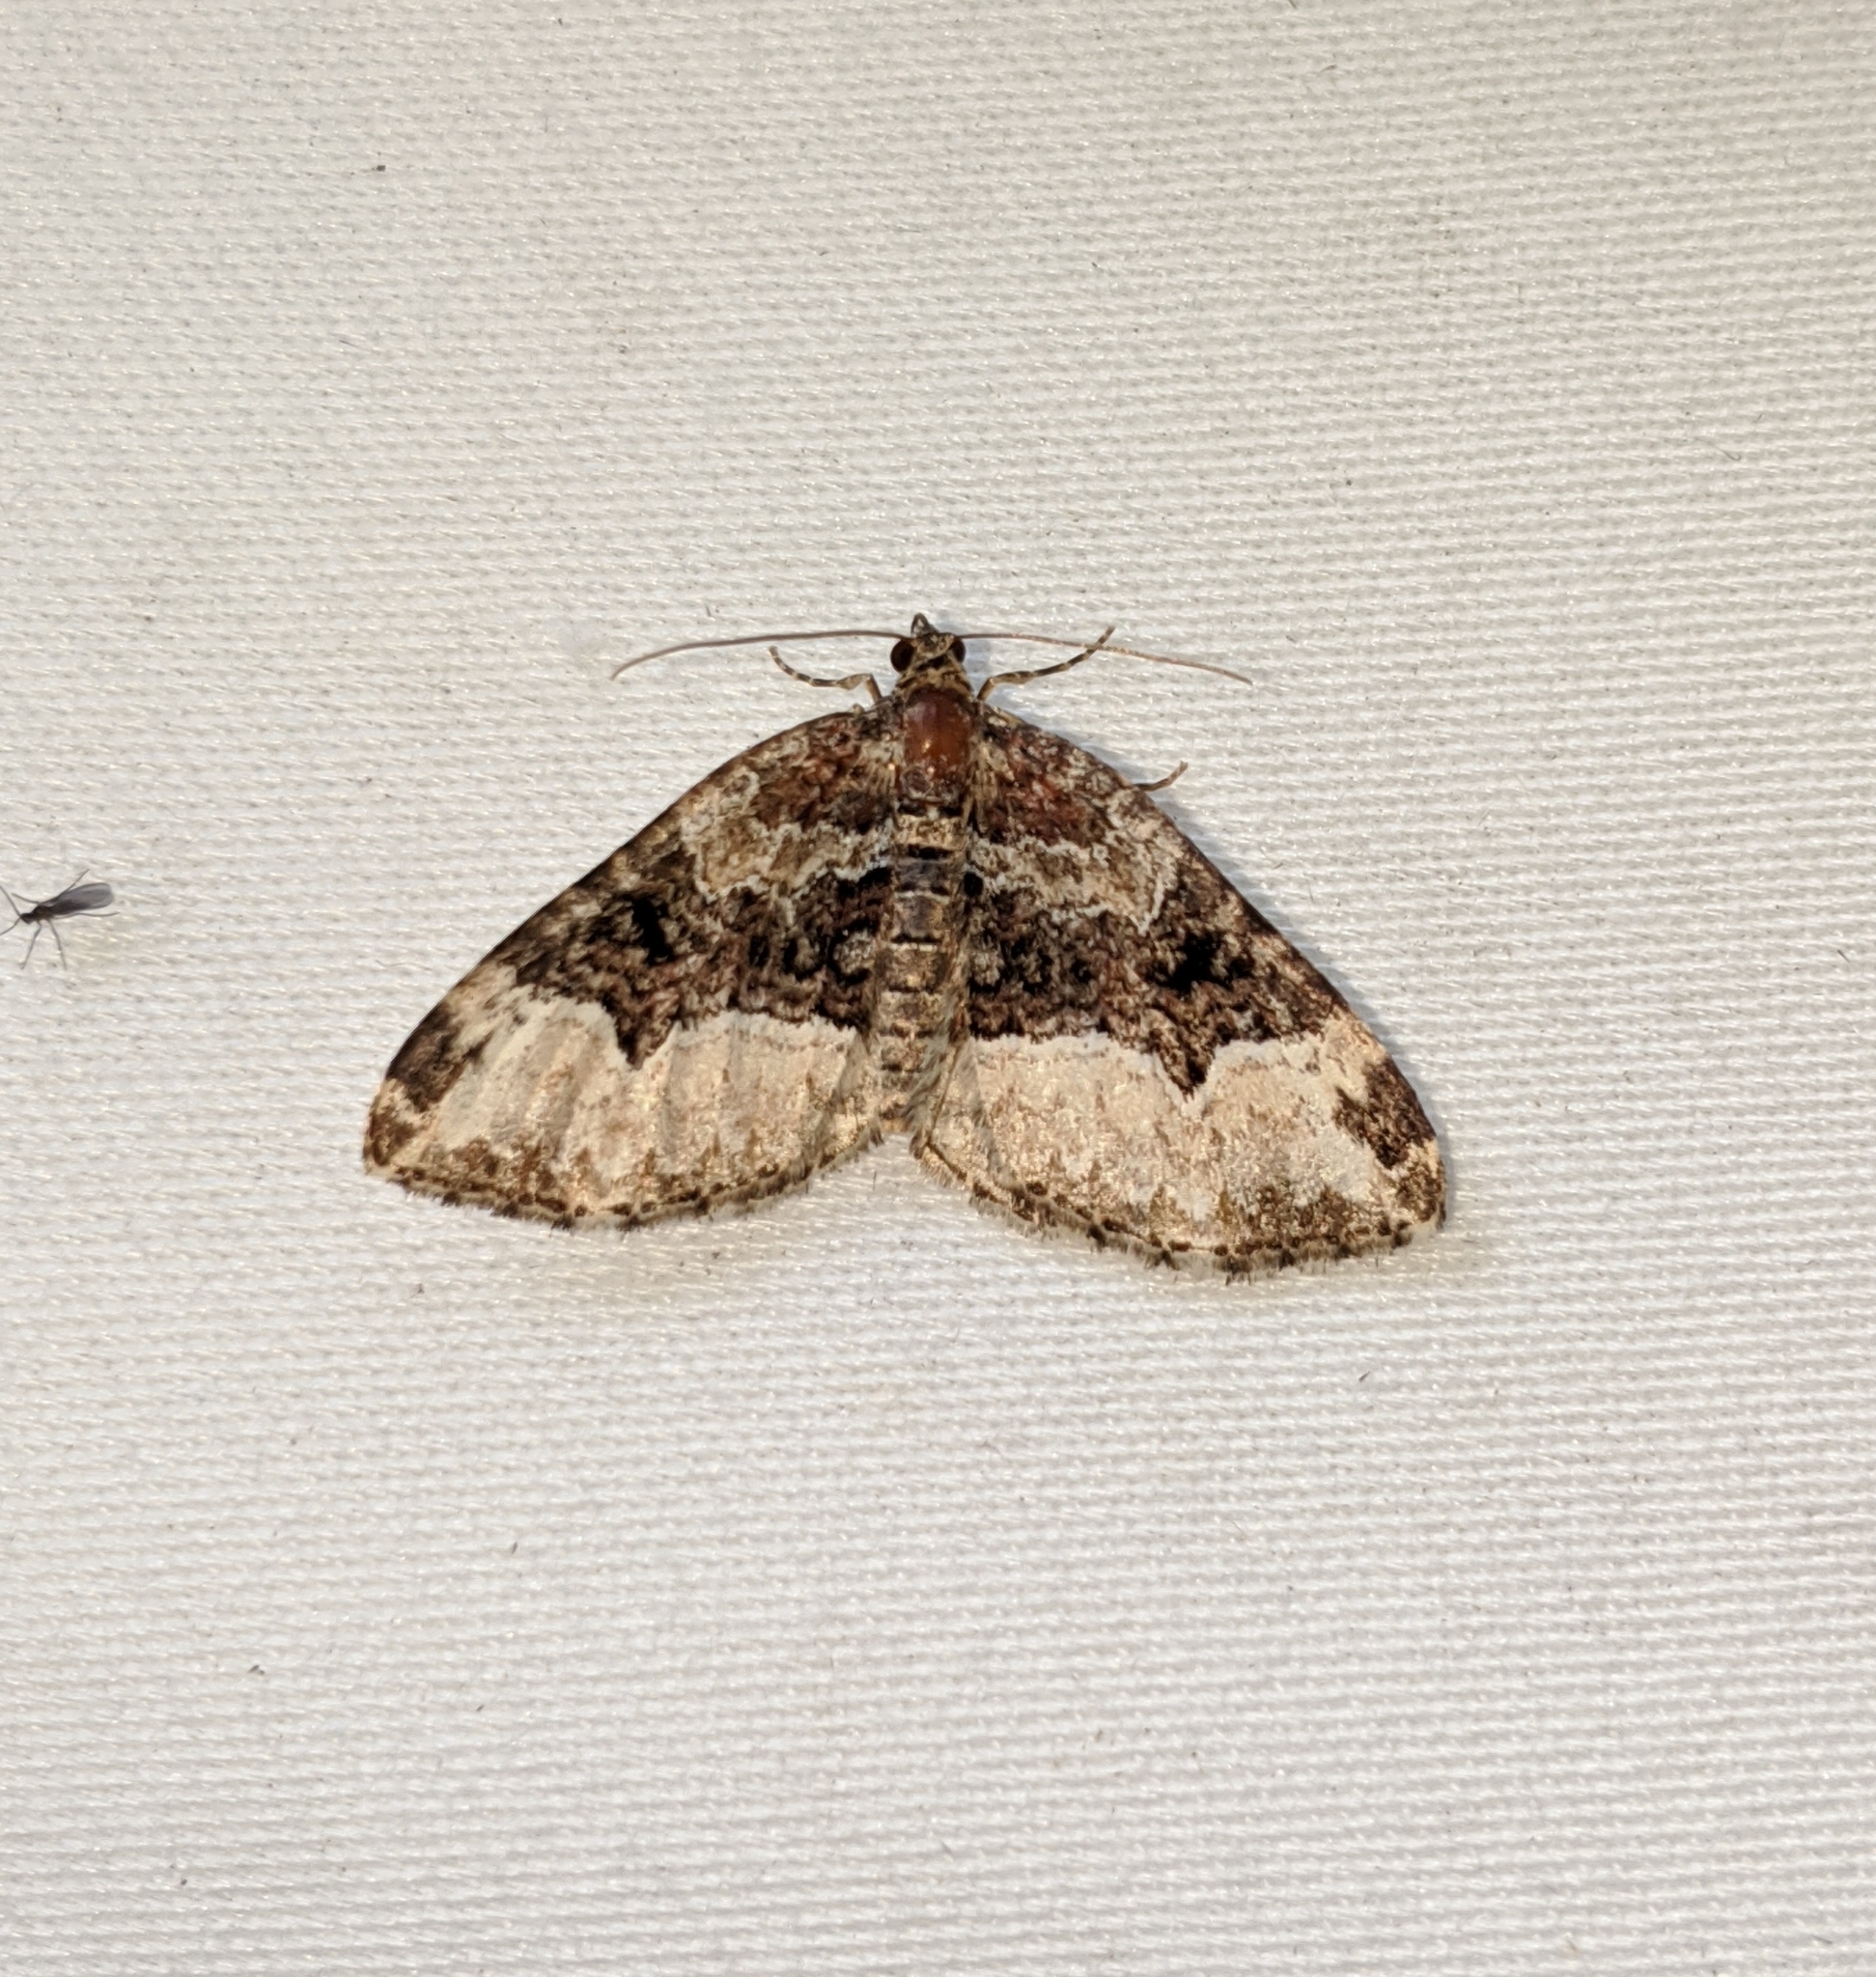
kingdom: Animalia
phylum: Arthropoda
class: Insecta
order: Lepidoptera
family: Geometridae
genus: Euphyia
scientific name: Euphyia intermediata
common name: Sharp-angled carpet
